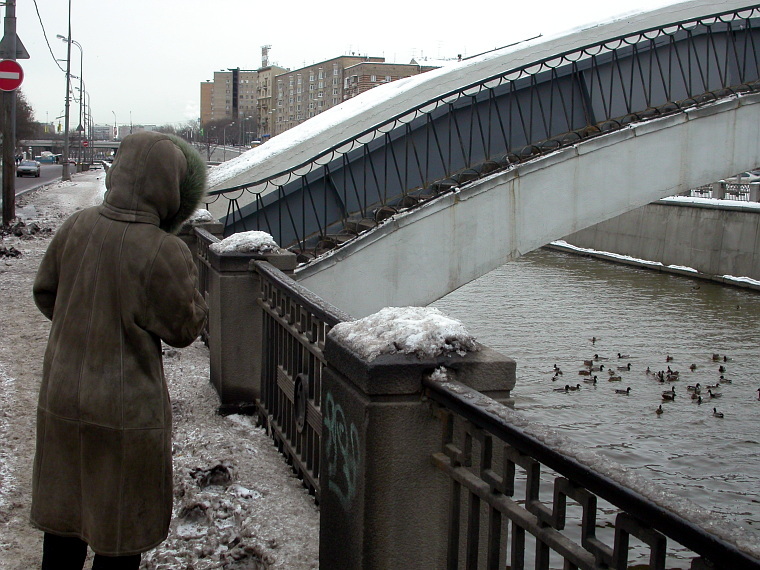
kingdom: Animalia
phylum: Chordata
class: Aves
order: Anseriformes
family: Anatidae
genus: Anas
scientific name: Anas platyrhynchos
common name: Mallard
